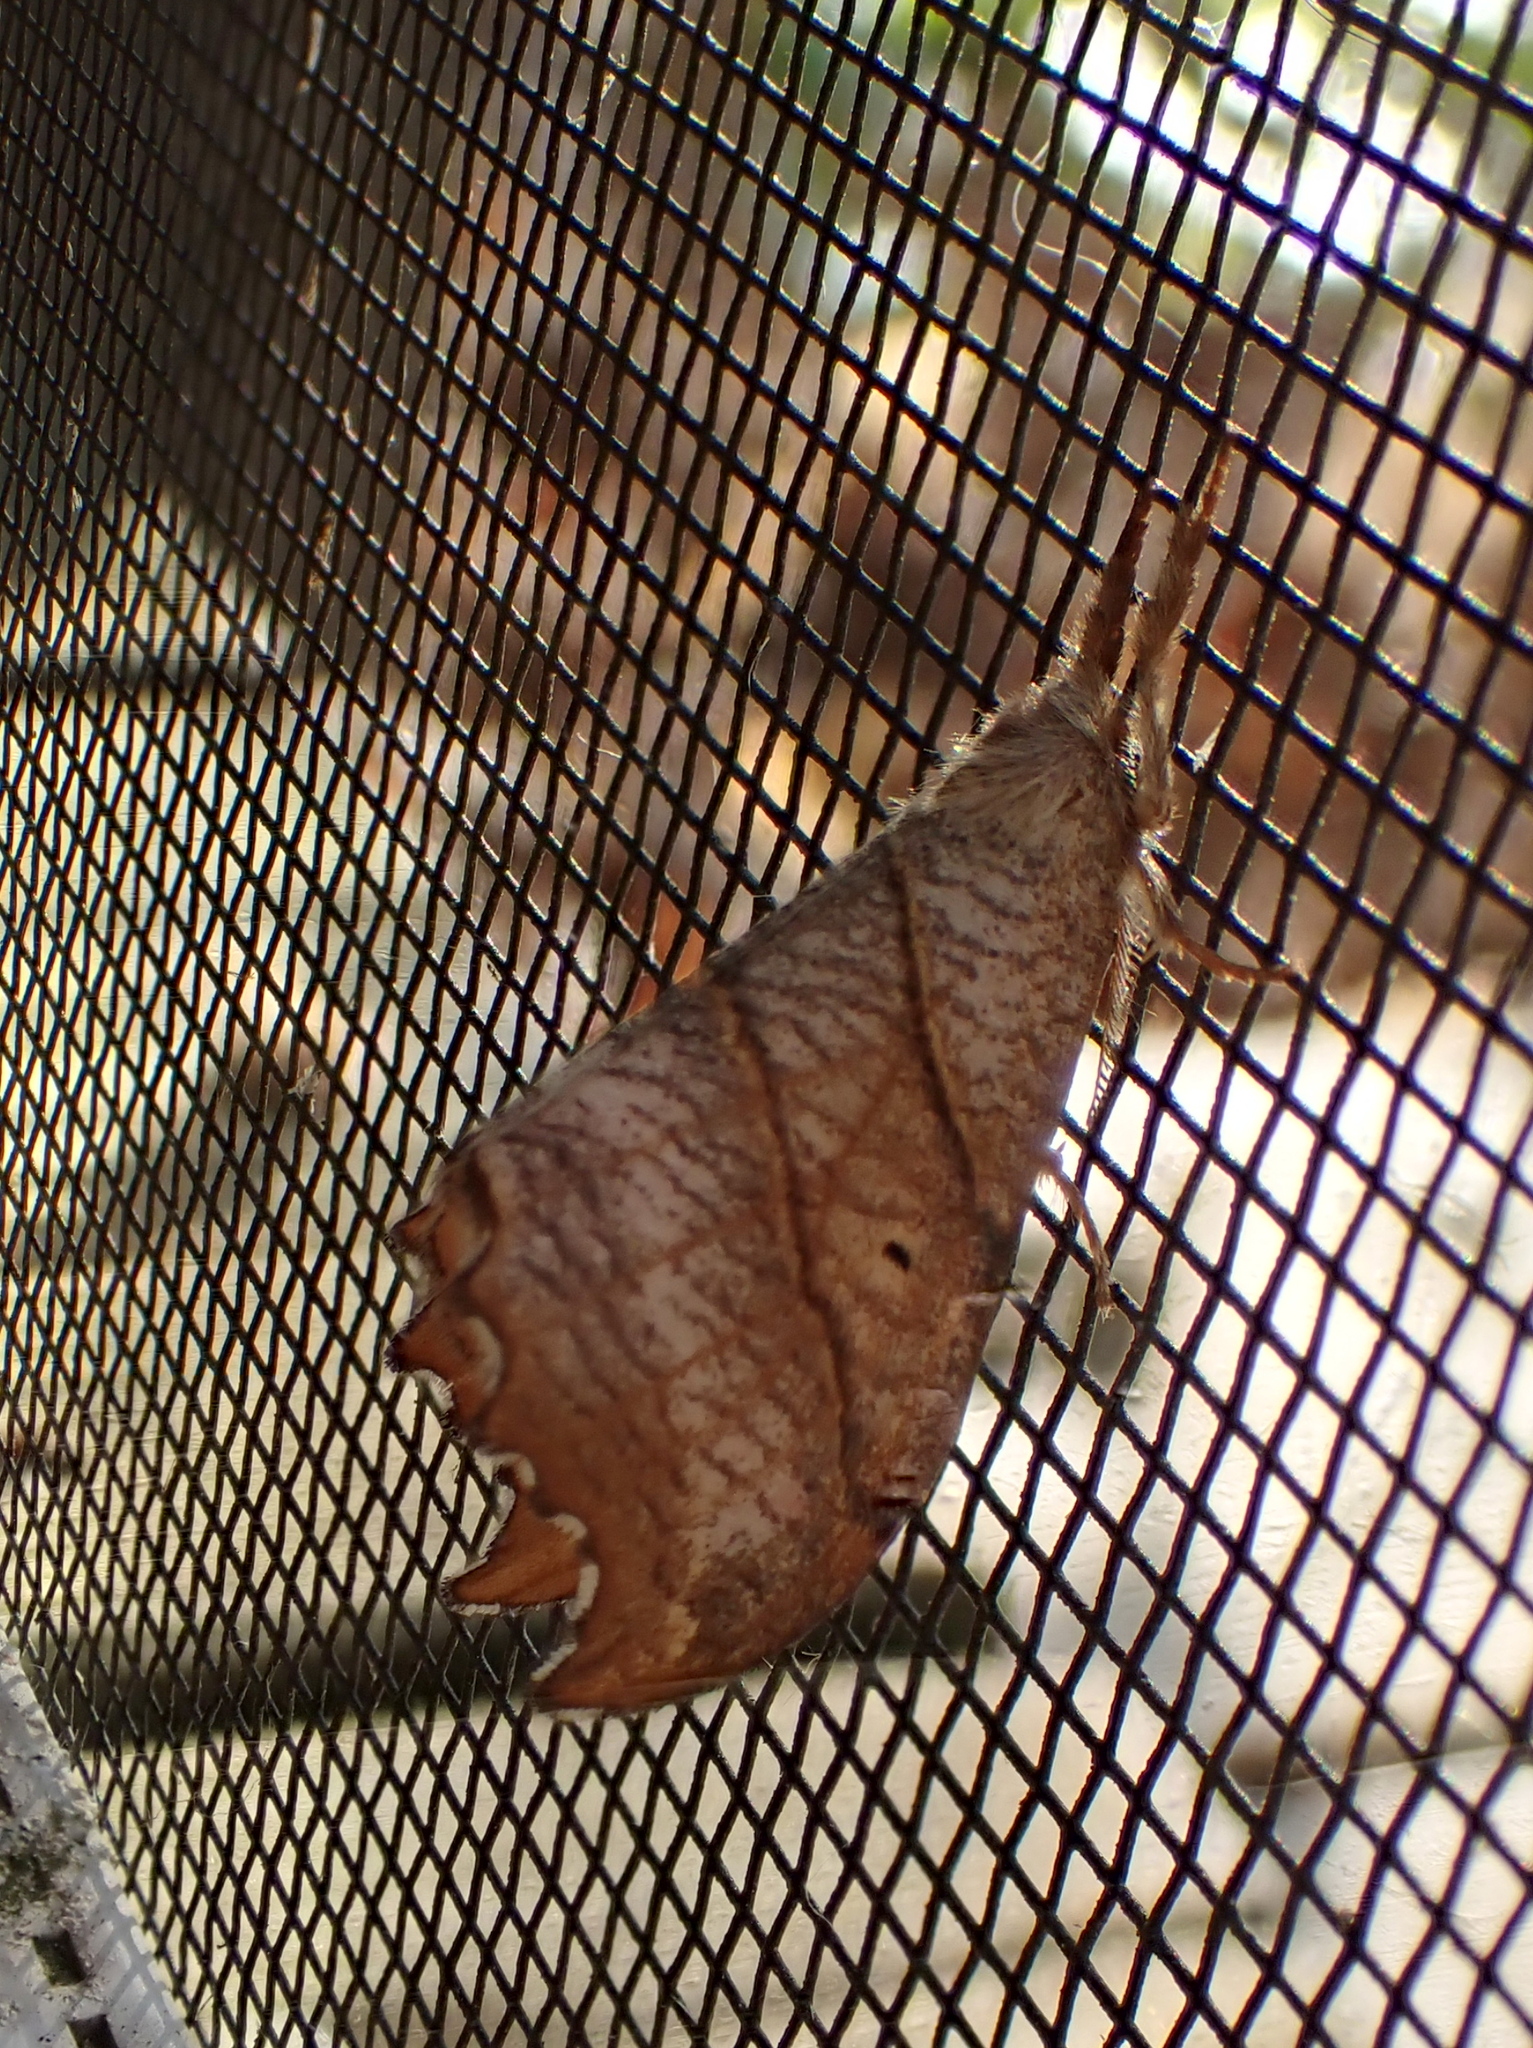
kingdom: Animalia
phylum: Arthropoda
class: Insecta
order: Lepidoptera
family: Drepanidae
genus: Falcaria
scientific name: Falcaria bilineata
